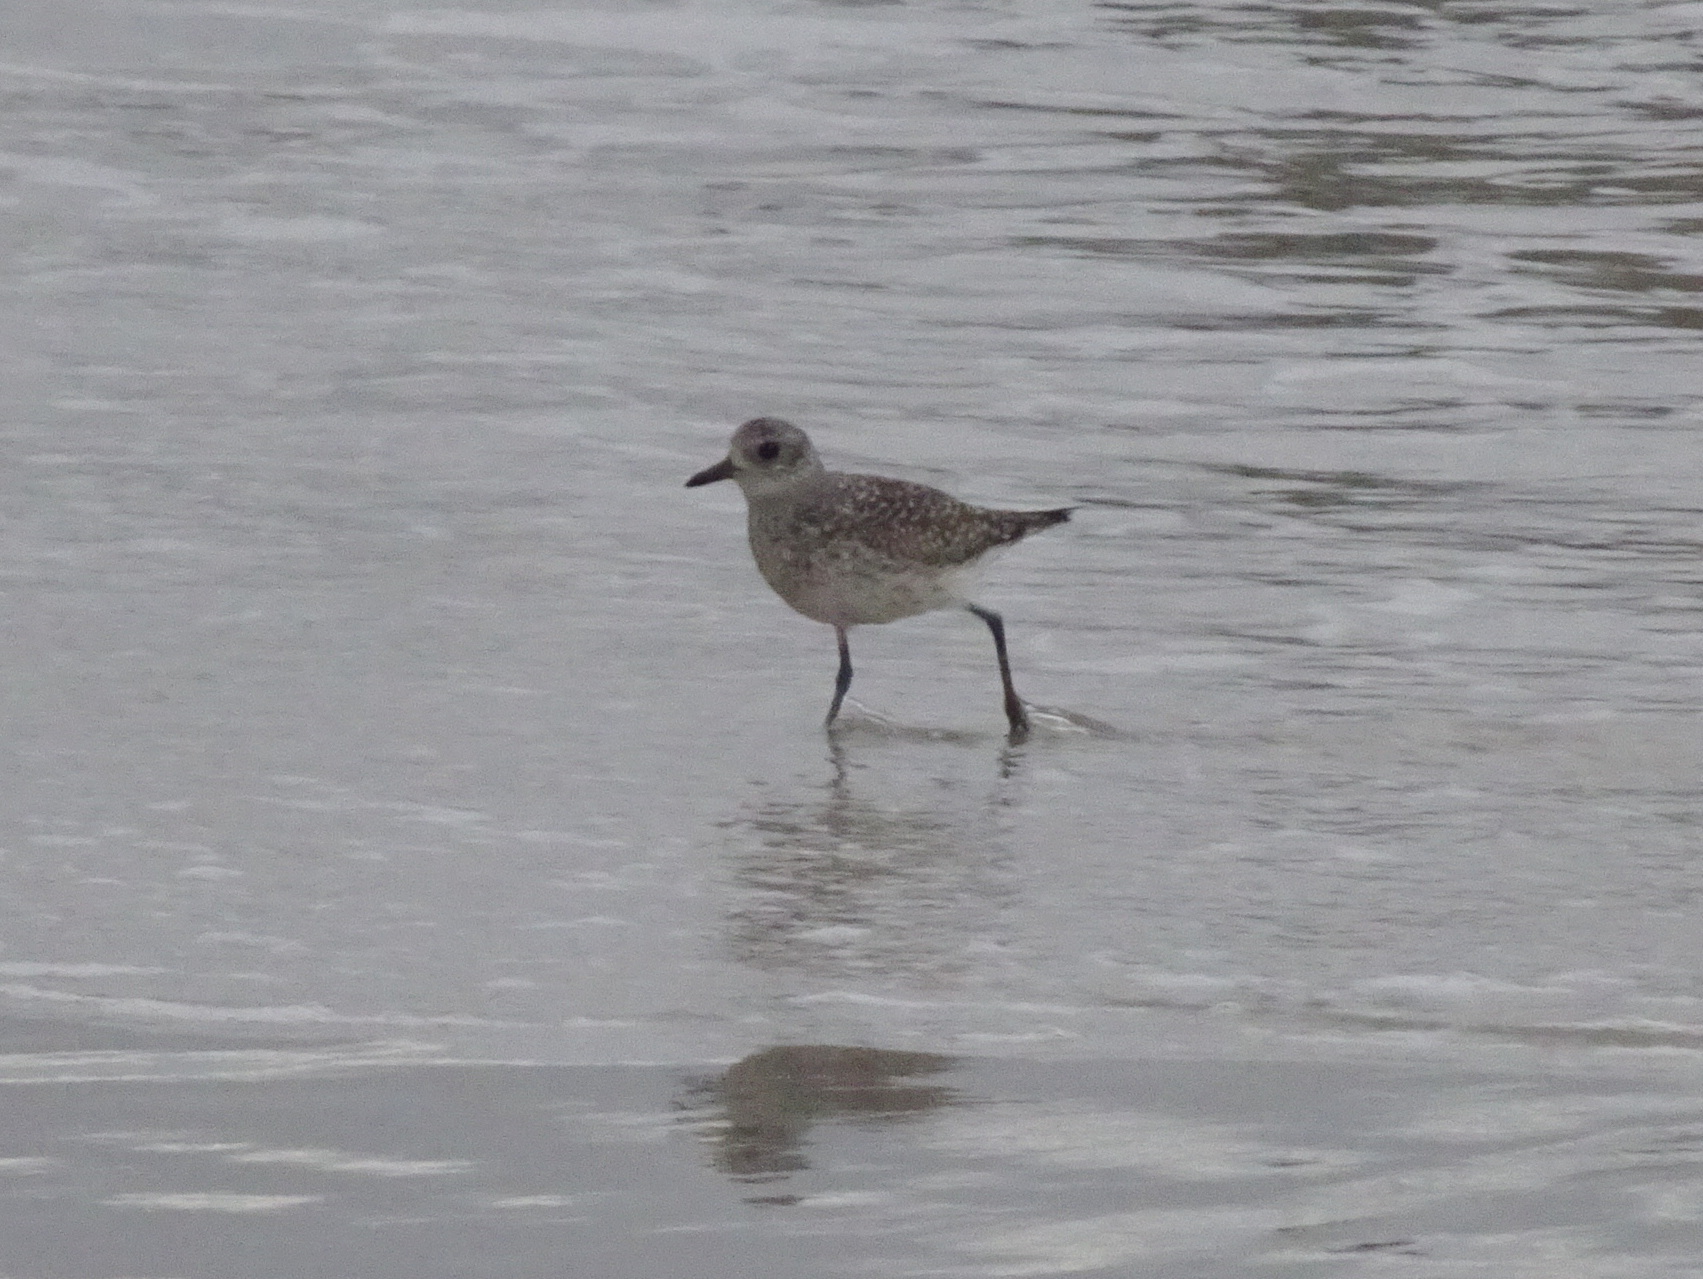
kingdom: Animalia
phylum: Chordata
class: Aves
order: Charadriiformes
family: Charadriidae
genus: Pluvialis
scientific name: Pluvialis squatarola
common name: Grey plover
